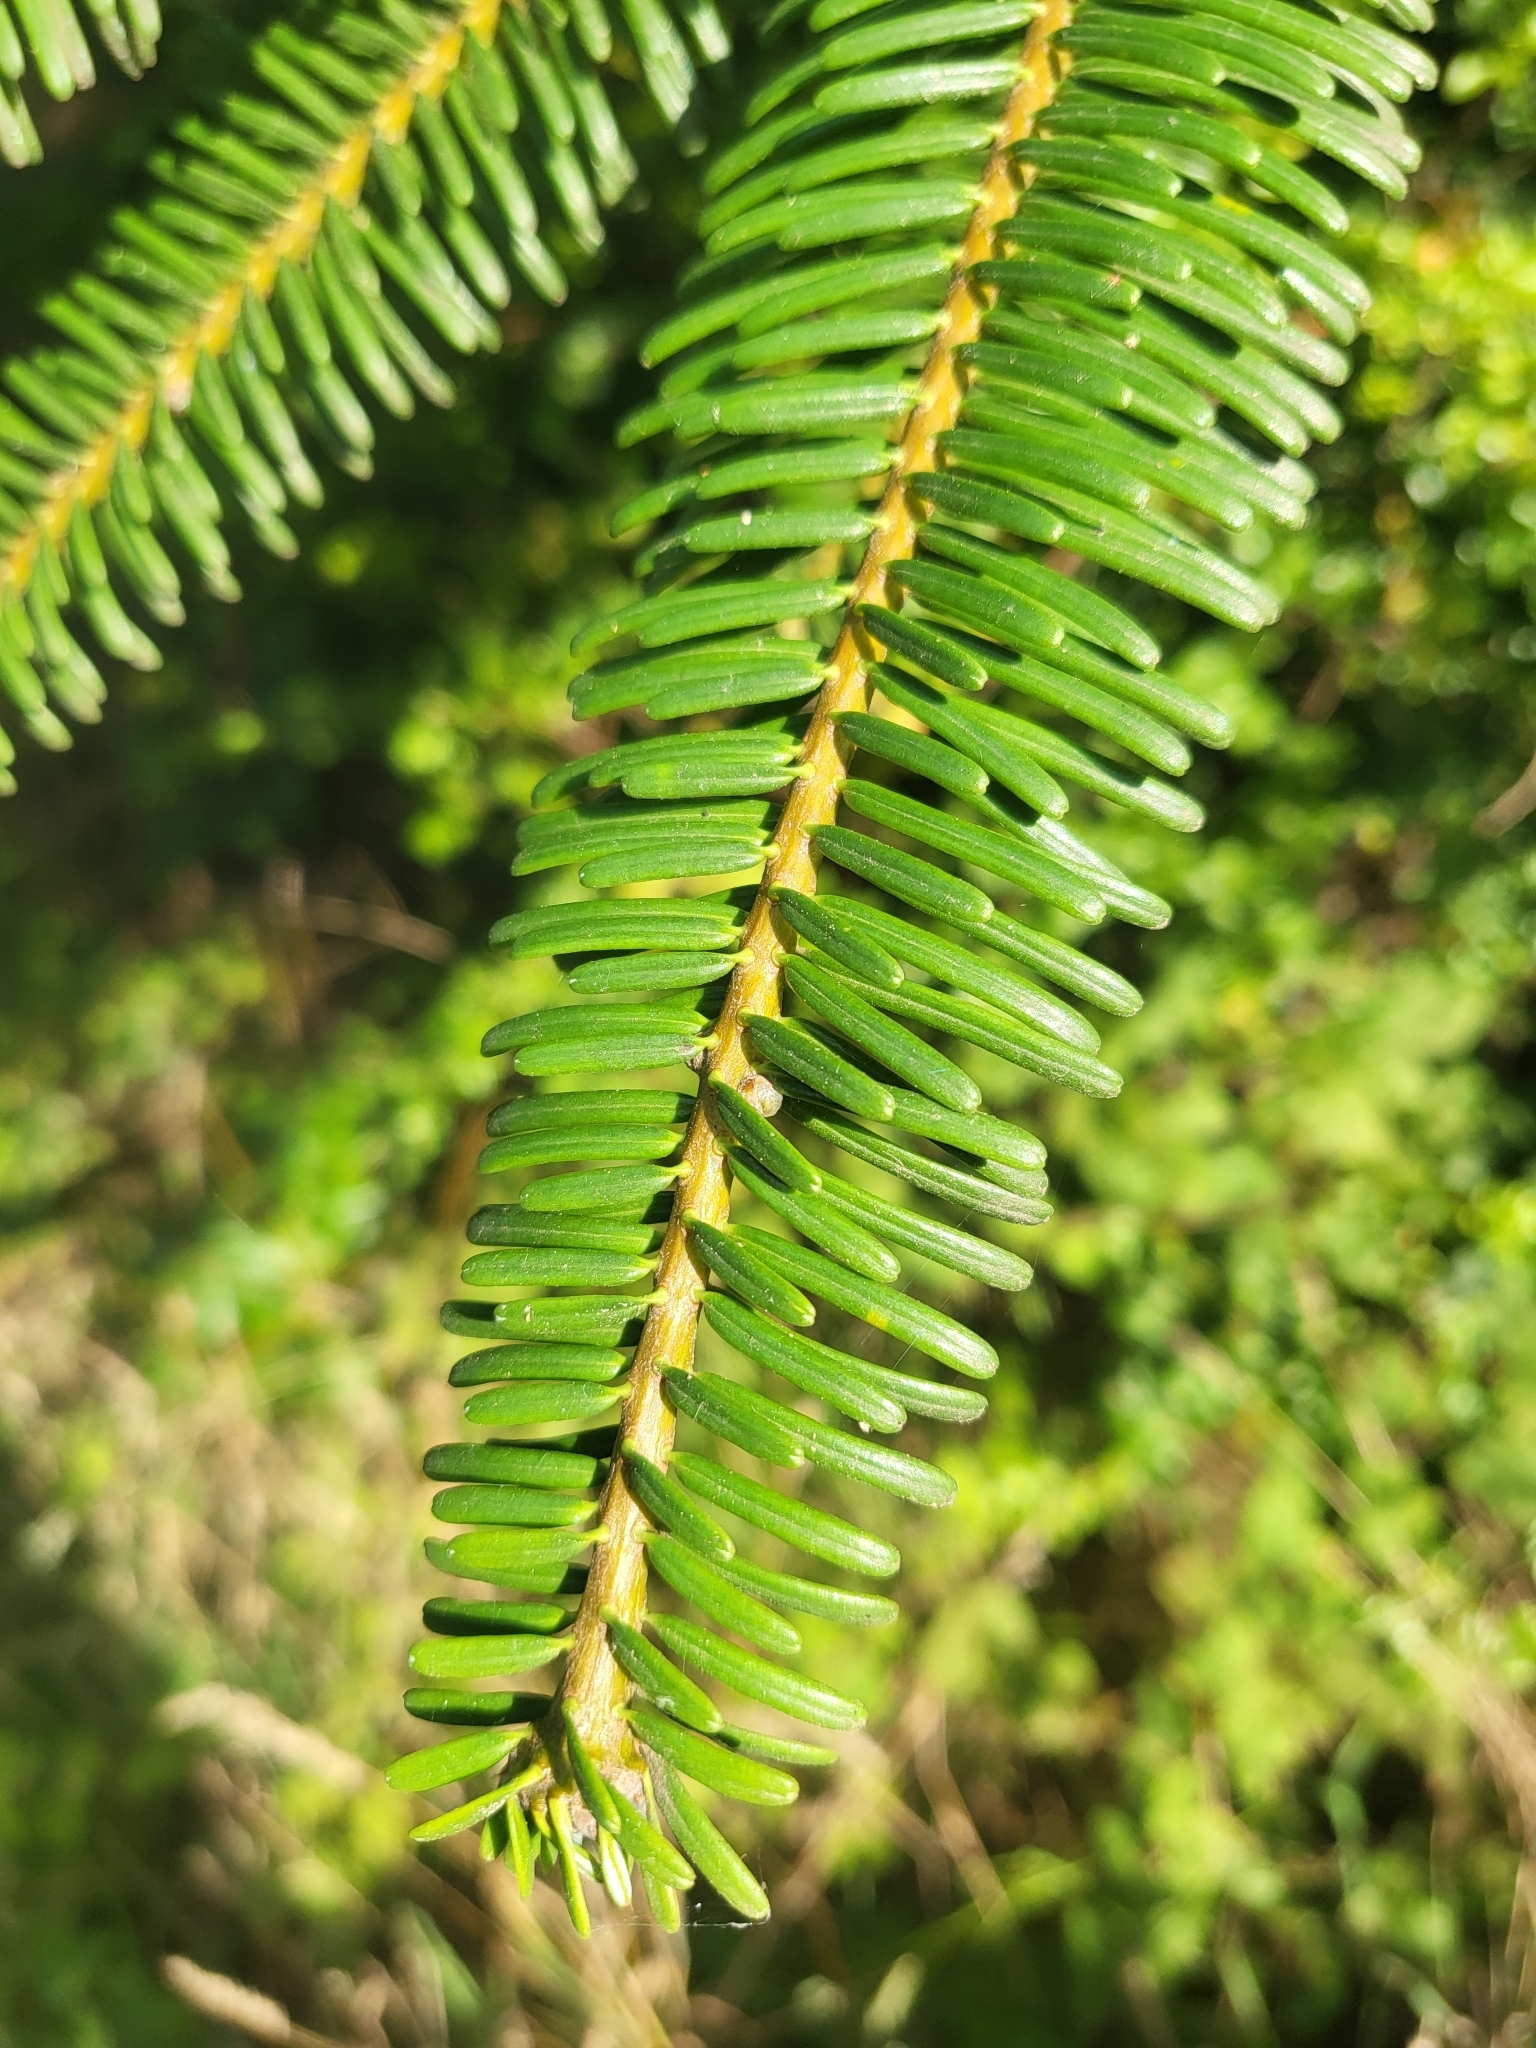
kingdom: Plantae
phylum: Tracheophyta
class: Pinopsida
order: Pinales
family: Pinaceae
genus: Abies
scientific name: Abies grandis
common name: Giant fir
